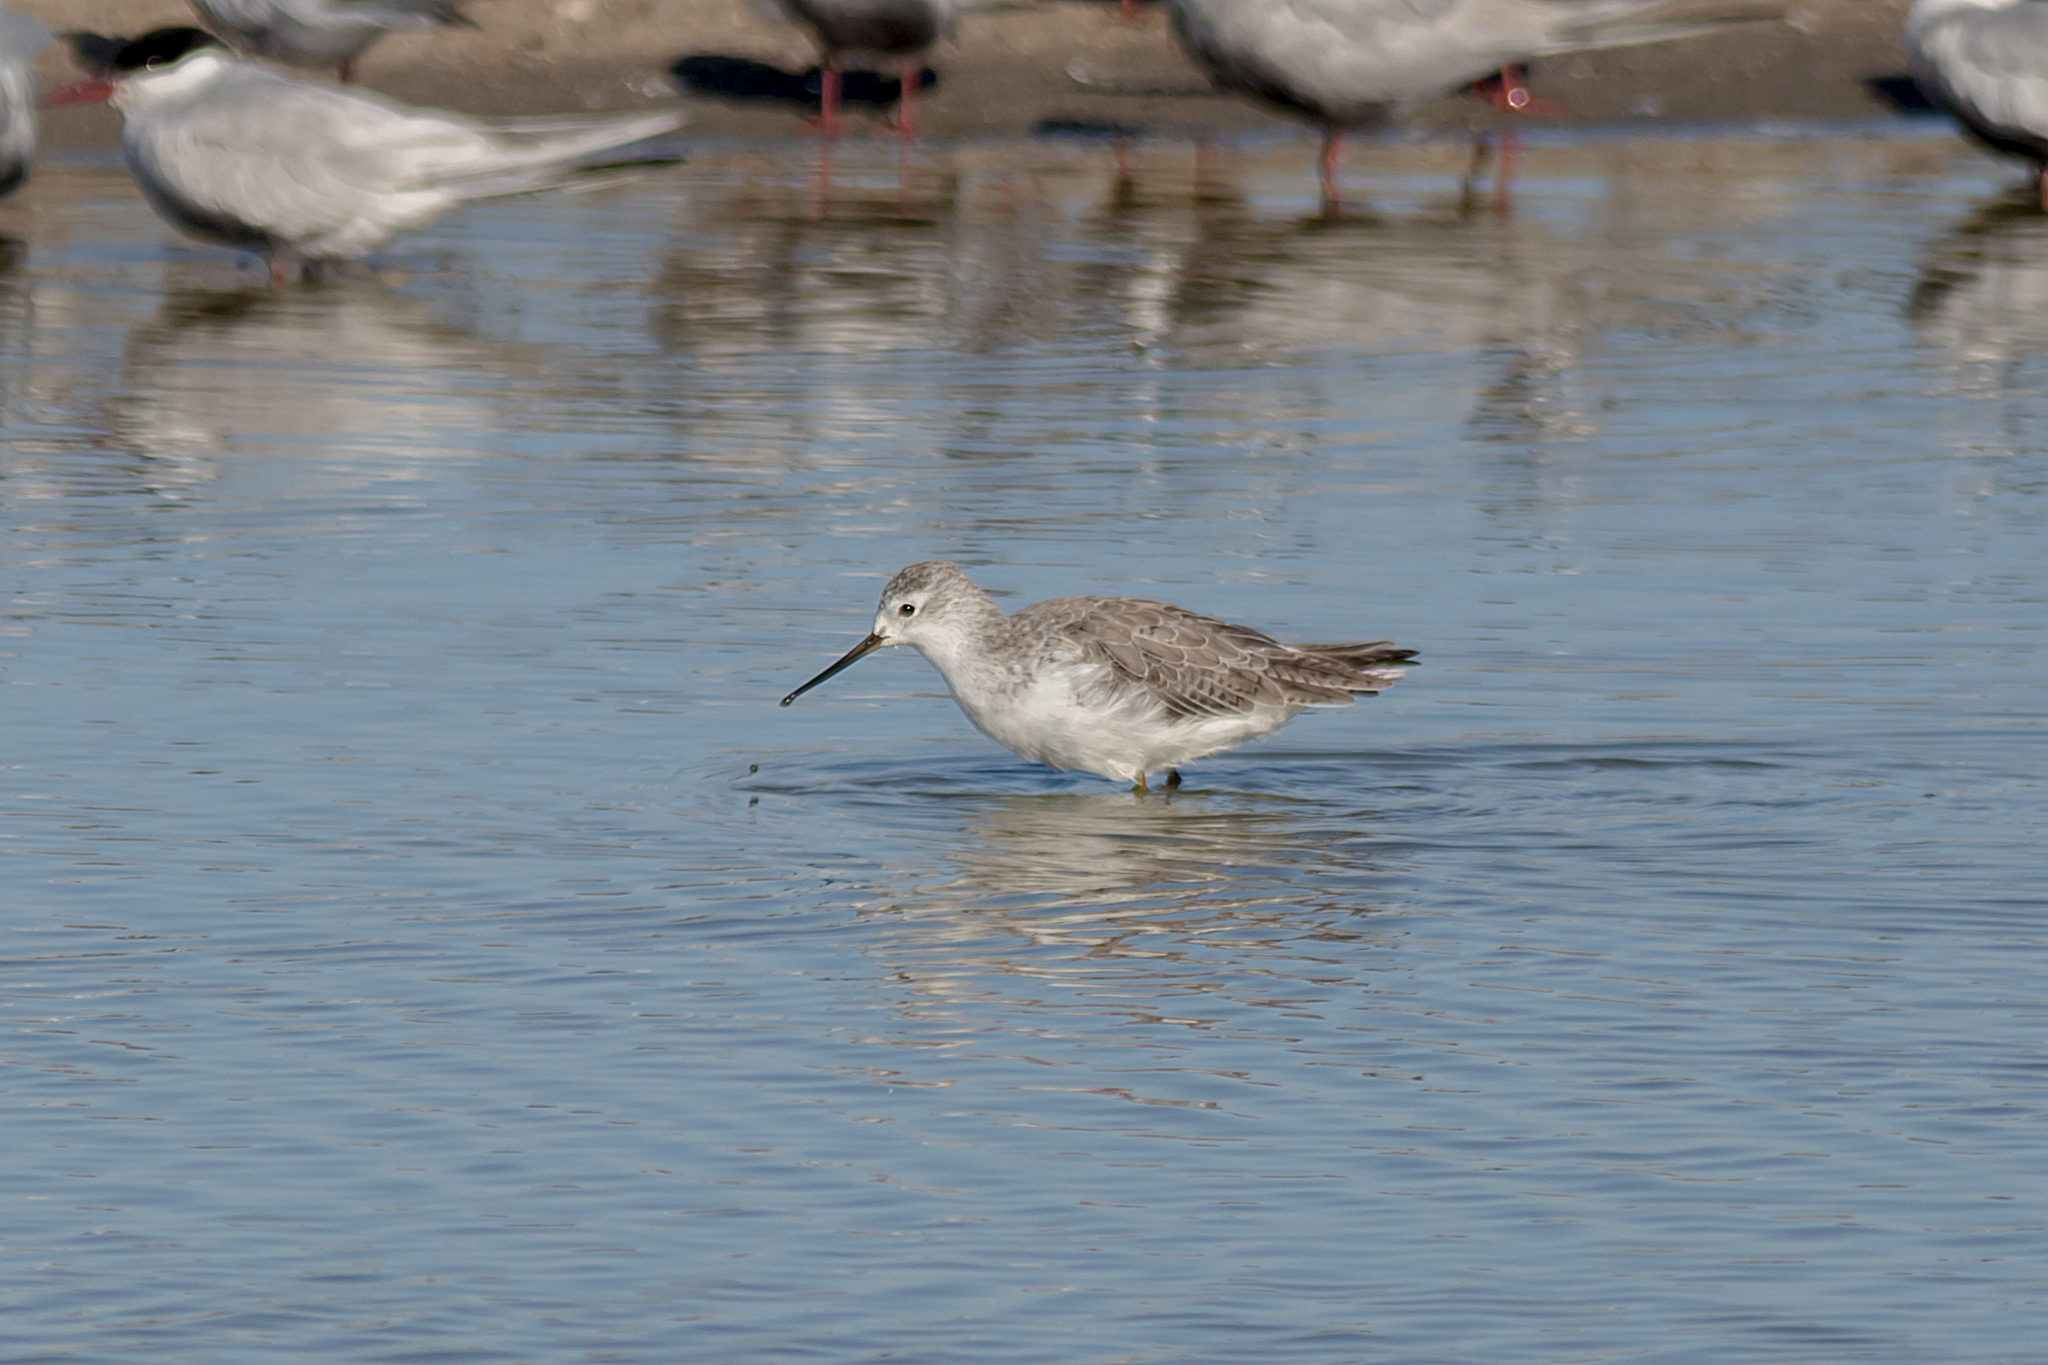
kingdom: Animalia
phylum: Chordata
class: Aves
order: Charadriiformes
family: Scolopacidae
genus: Tringa
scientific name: Tringa stagnatilis
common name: Marsh sandpiper
